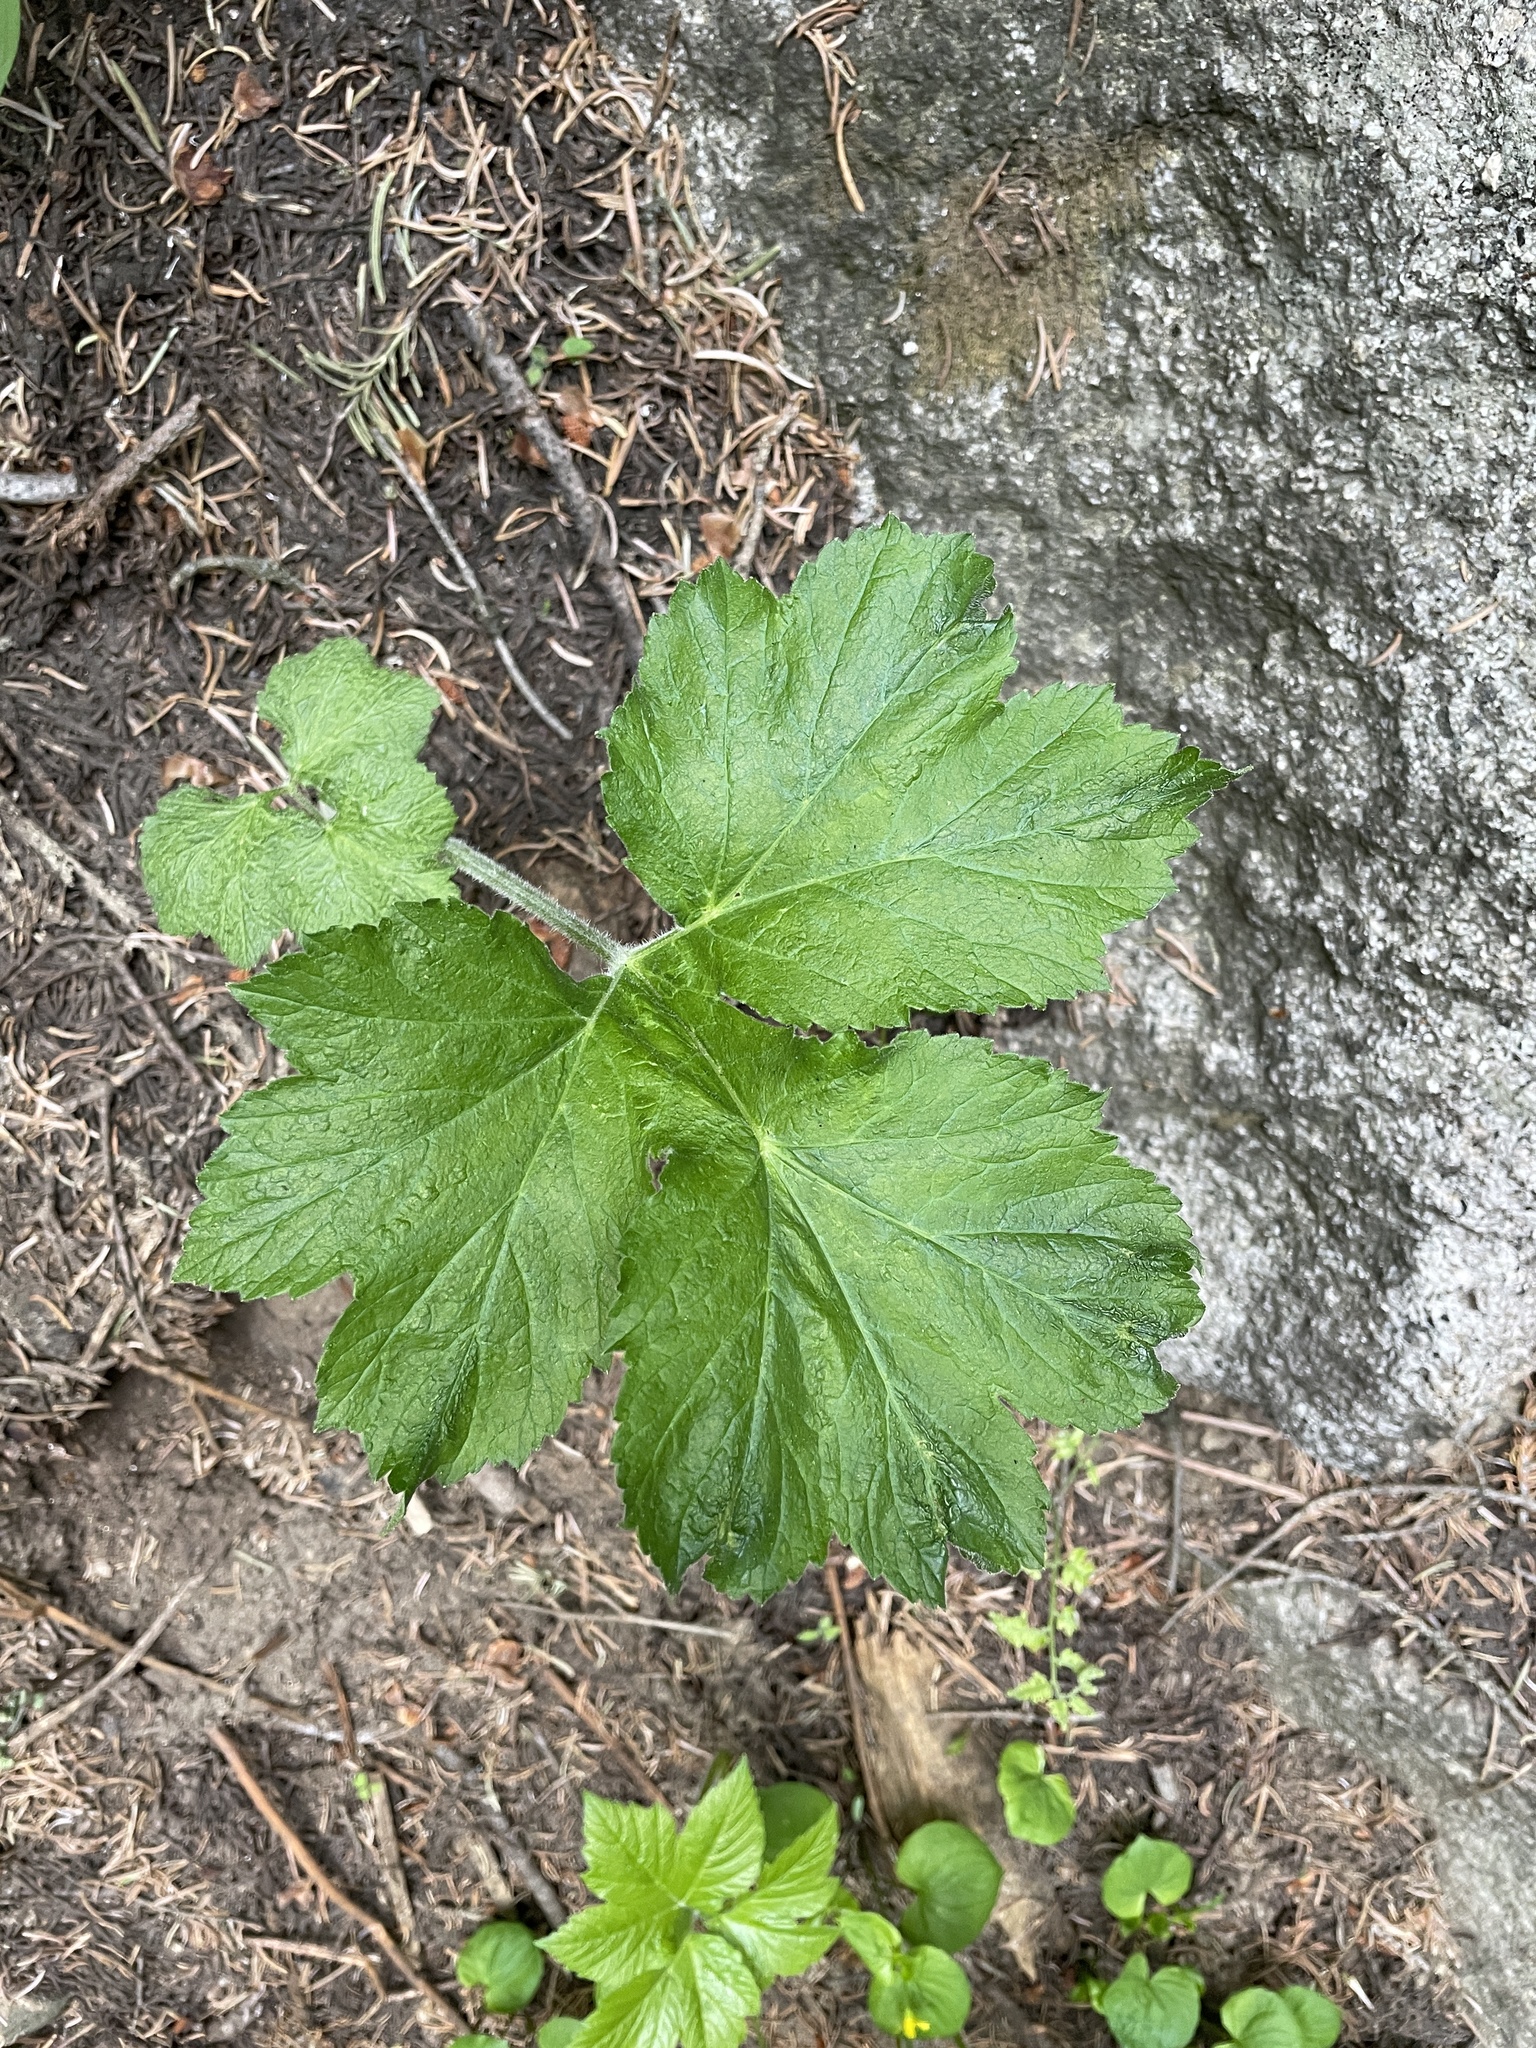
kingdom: Plantae
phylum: Tracheophyta
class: Magnoliopsida
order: Apiales
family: Apiaceae
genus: Heracleum
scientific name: Heracleum maximum
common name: American cow parsnip
